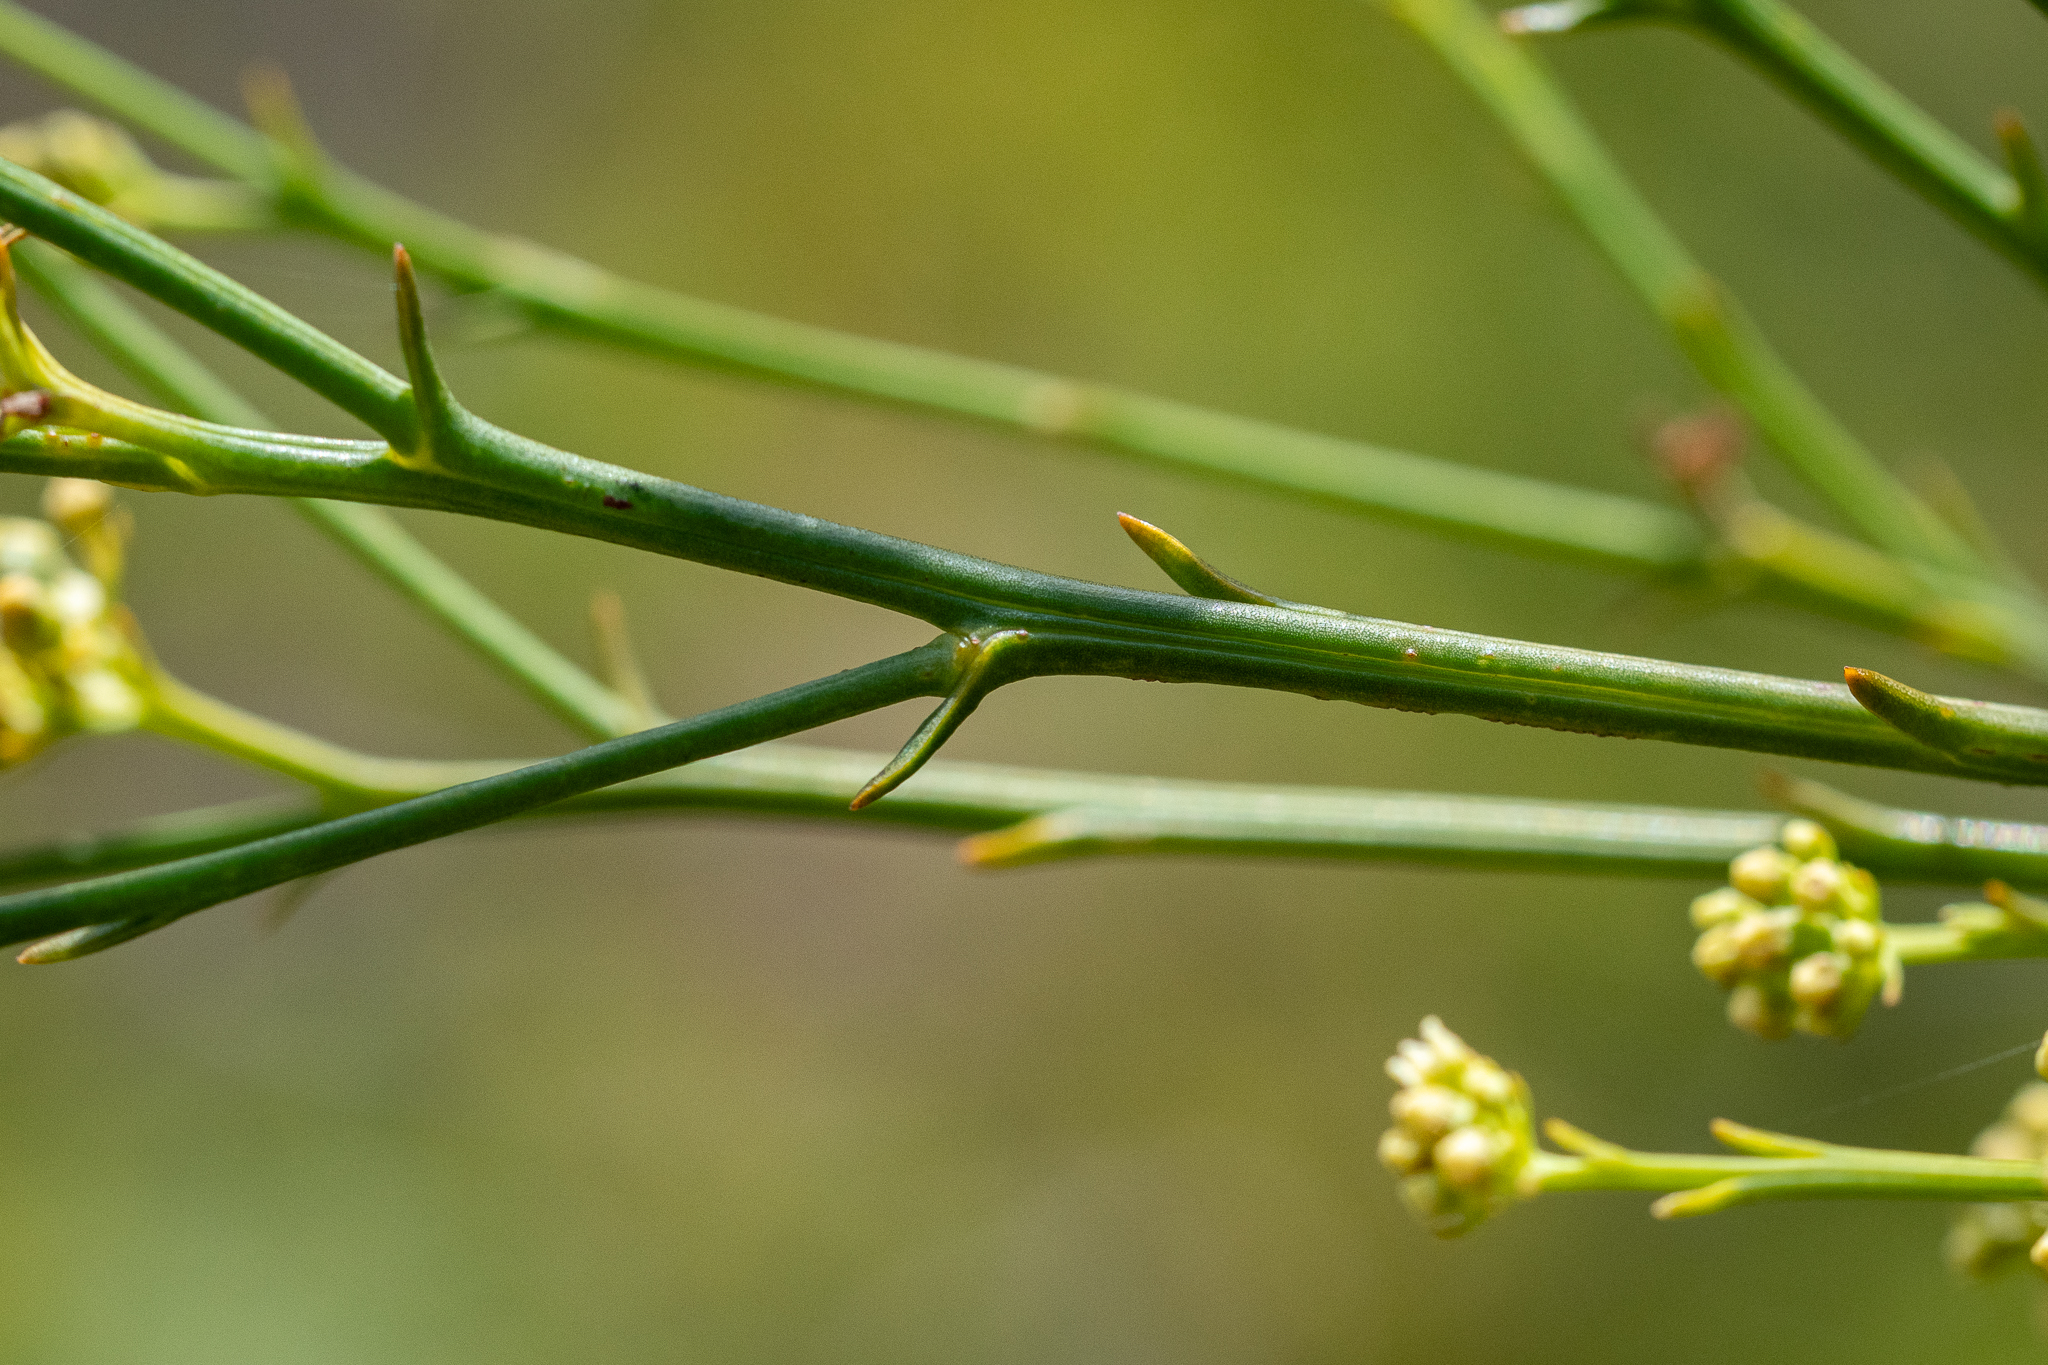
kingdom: Plantae
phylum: Tracheophyta
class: Magnoliopsida
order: Santalales
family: Thesiaceae
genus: Thesium
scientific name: Thesium strictum
